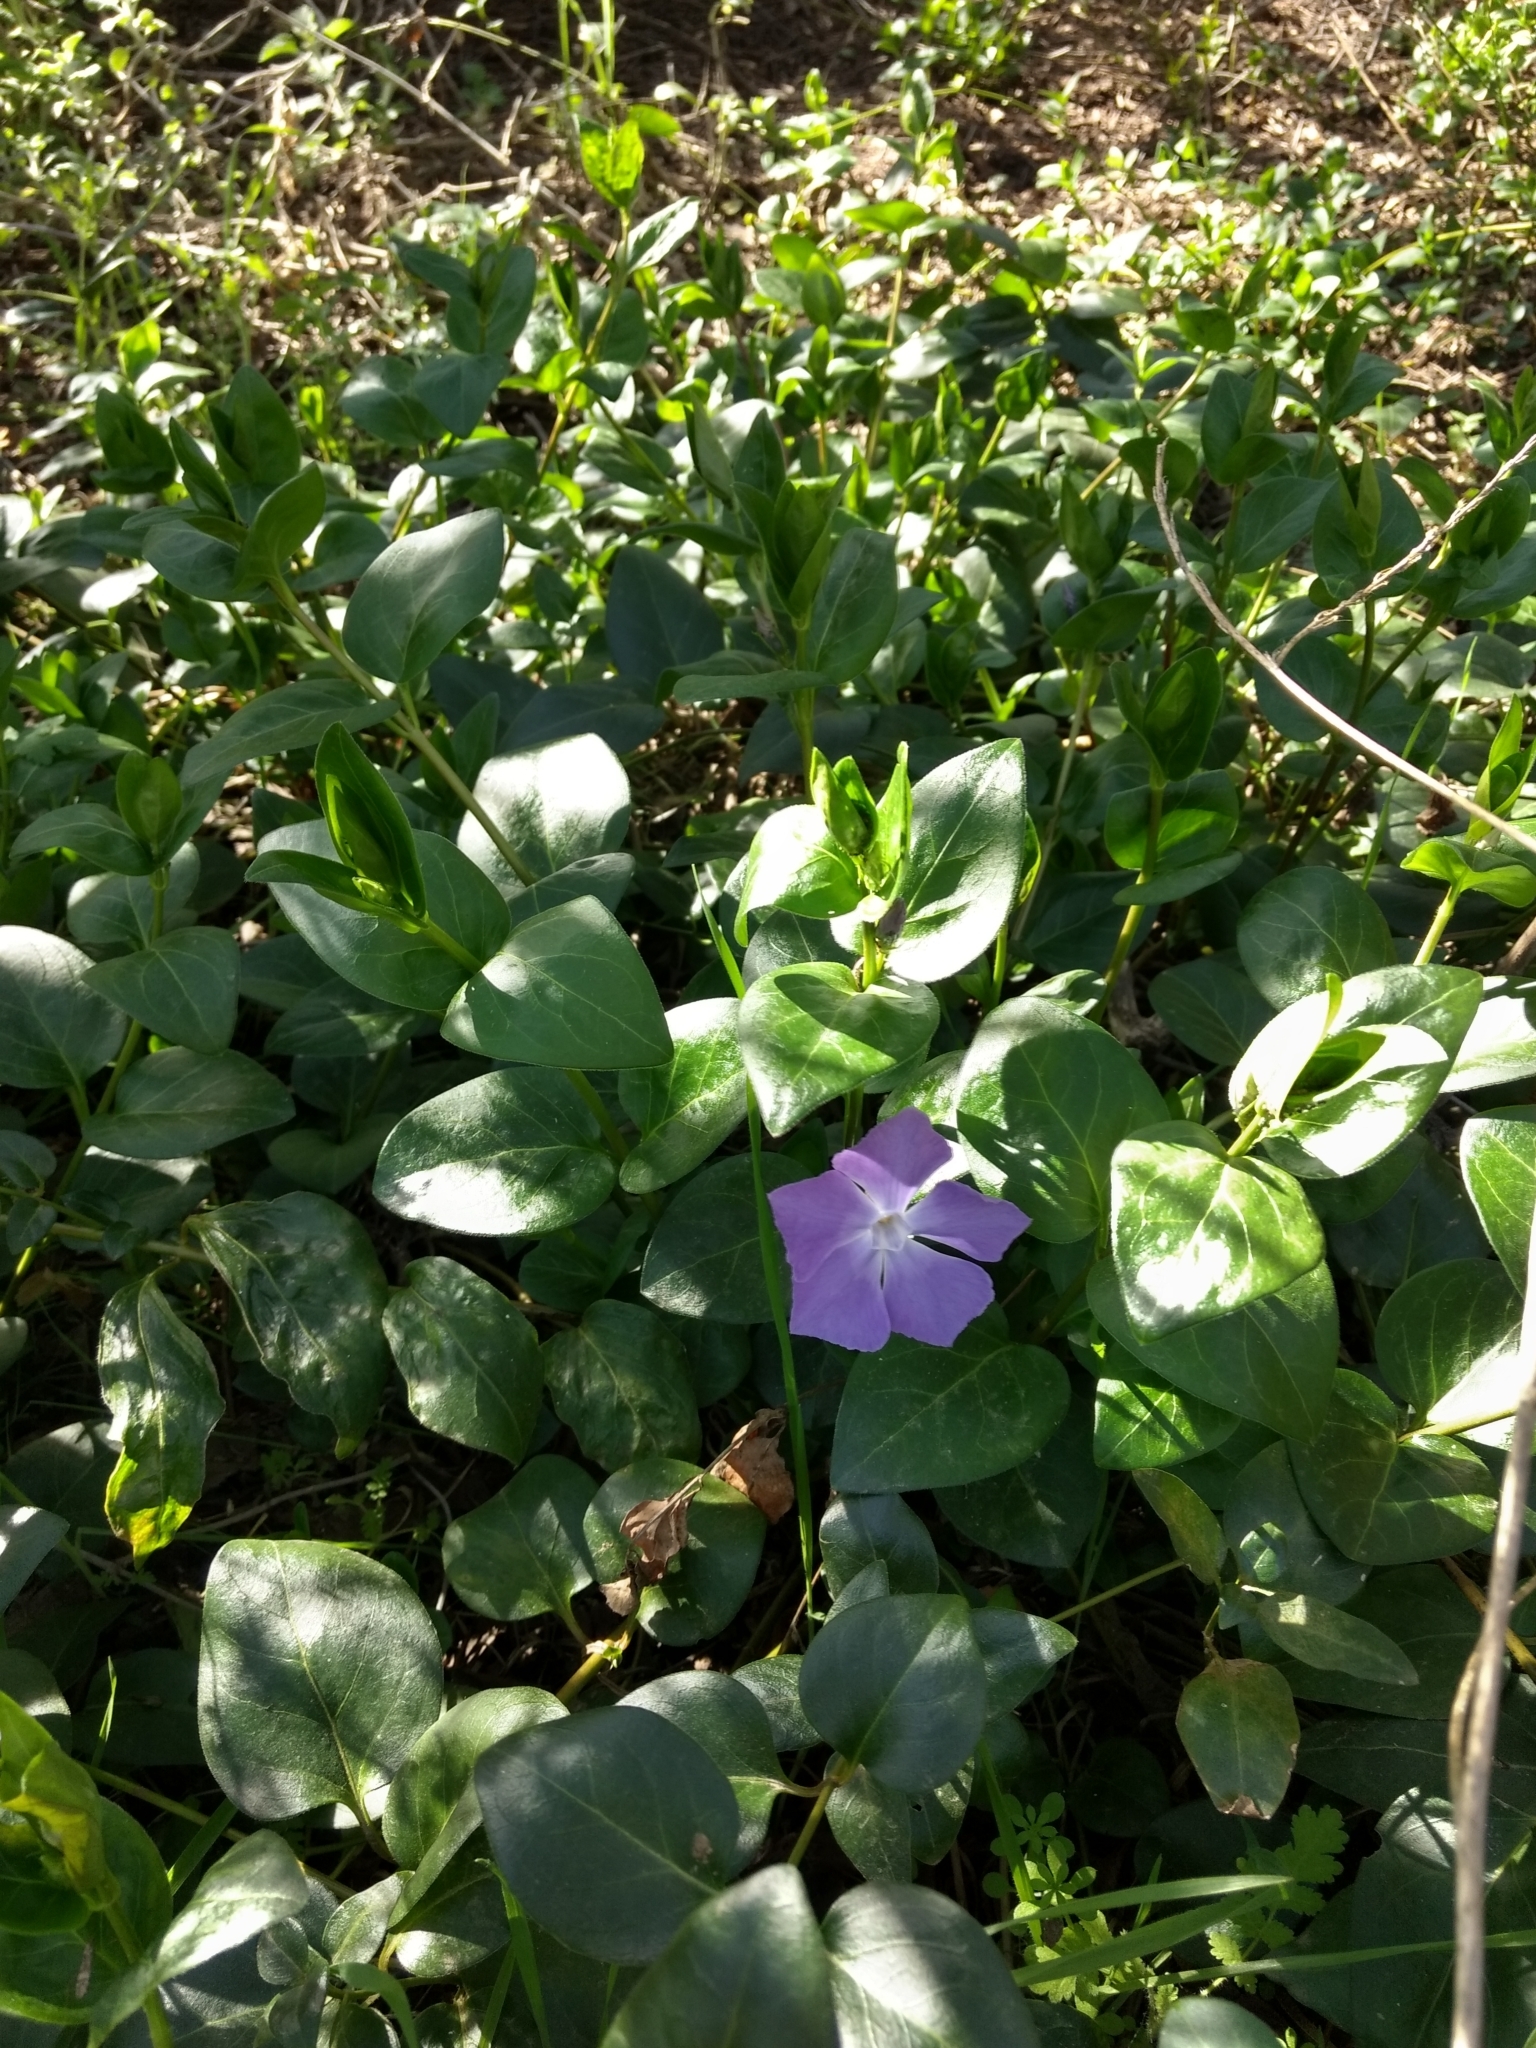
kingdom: Plantae
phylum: Tracheophyta
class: Magnoliopsida
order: Gentianales
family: Apocynaceae
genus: Vinca
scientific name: Vinca major
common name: Greater periwinkle
